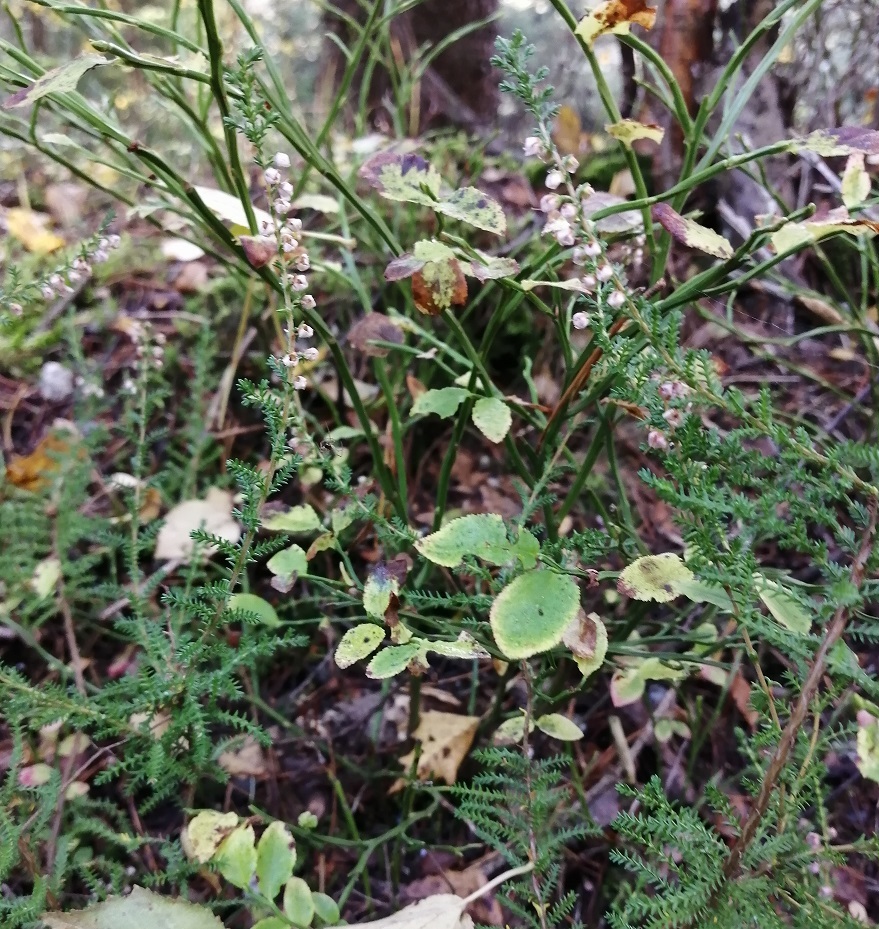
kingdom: Plantae
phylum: Tracheophyta
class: Magnoliopsida
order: Ericales
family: Ericaceae
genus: Calluna
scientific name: Calluna vulgaris
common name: Heather
